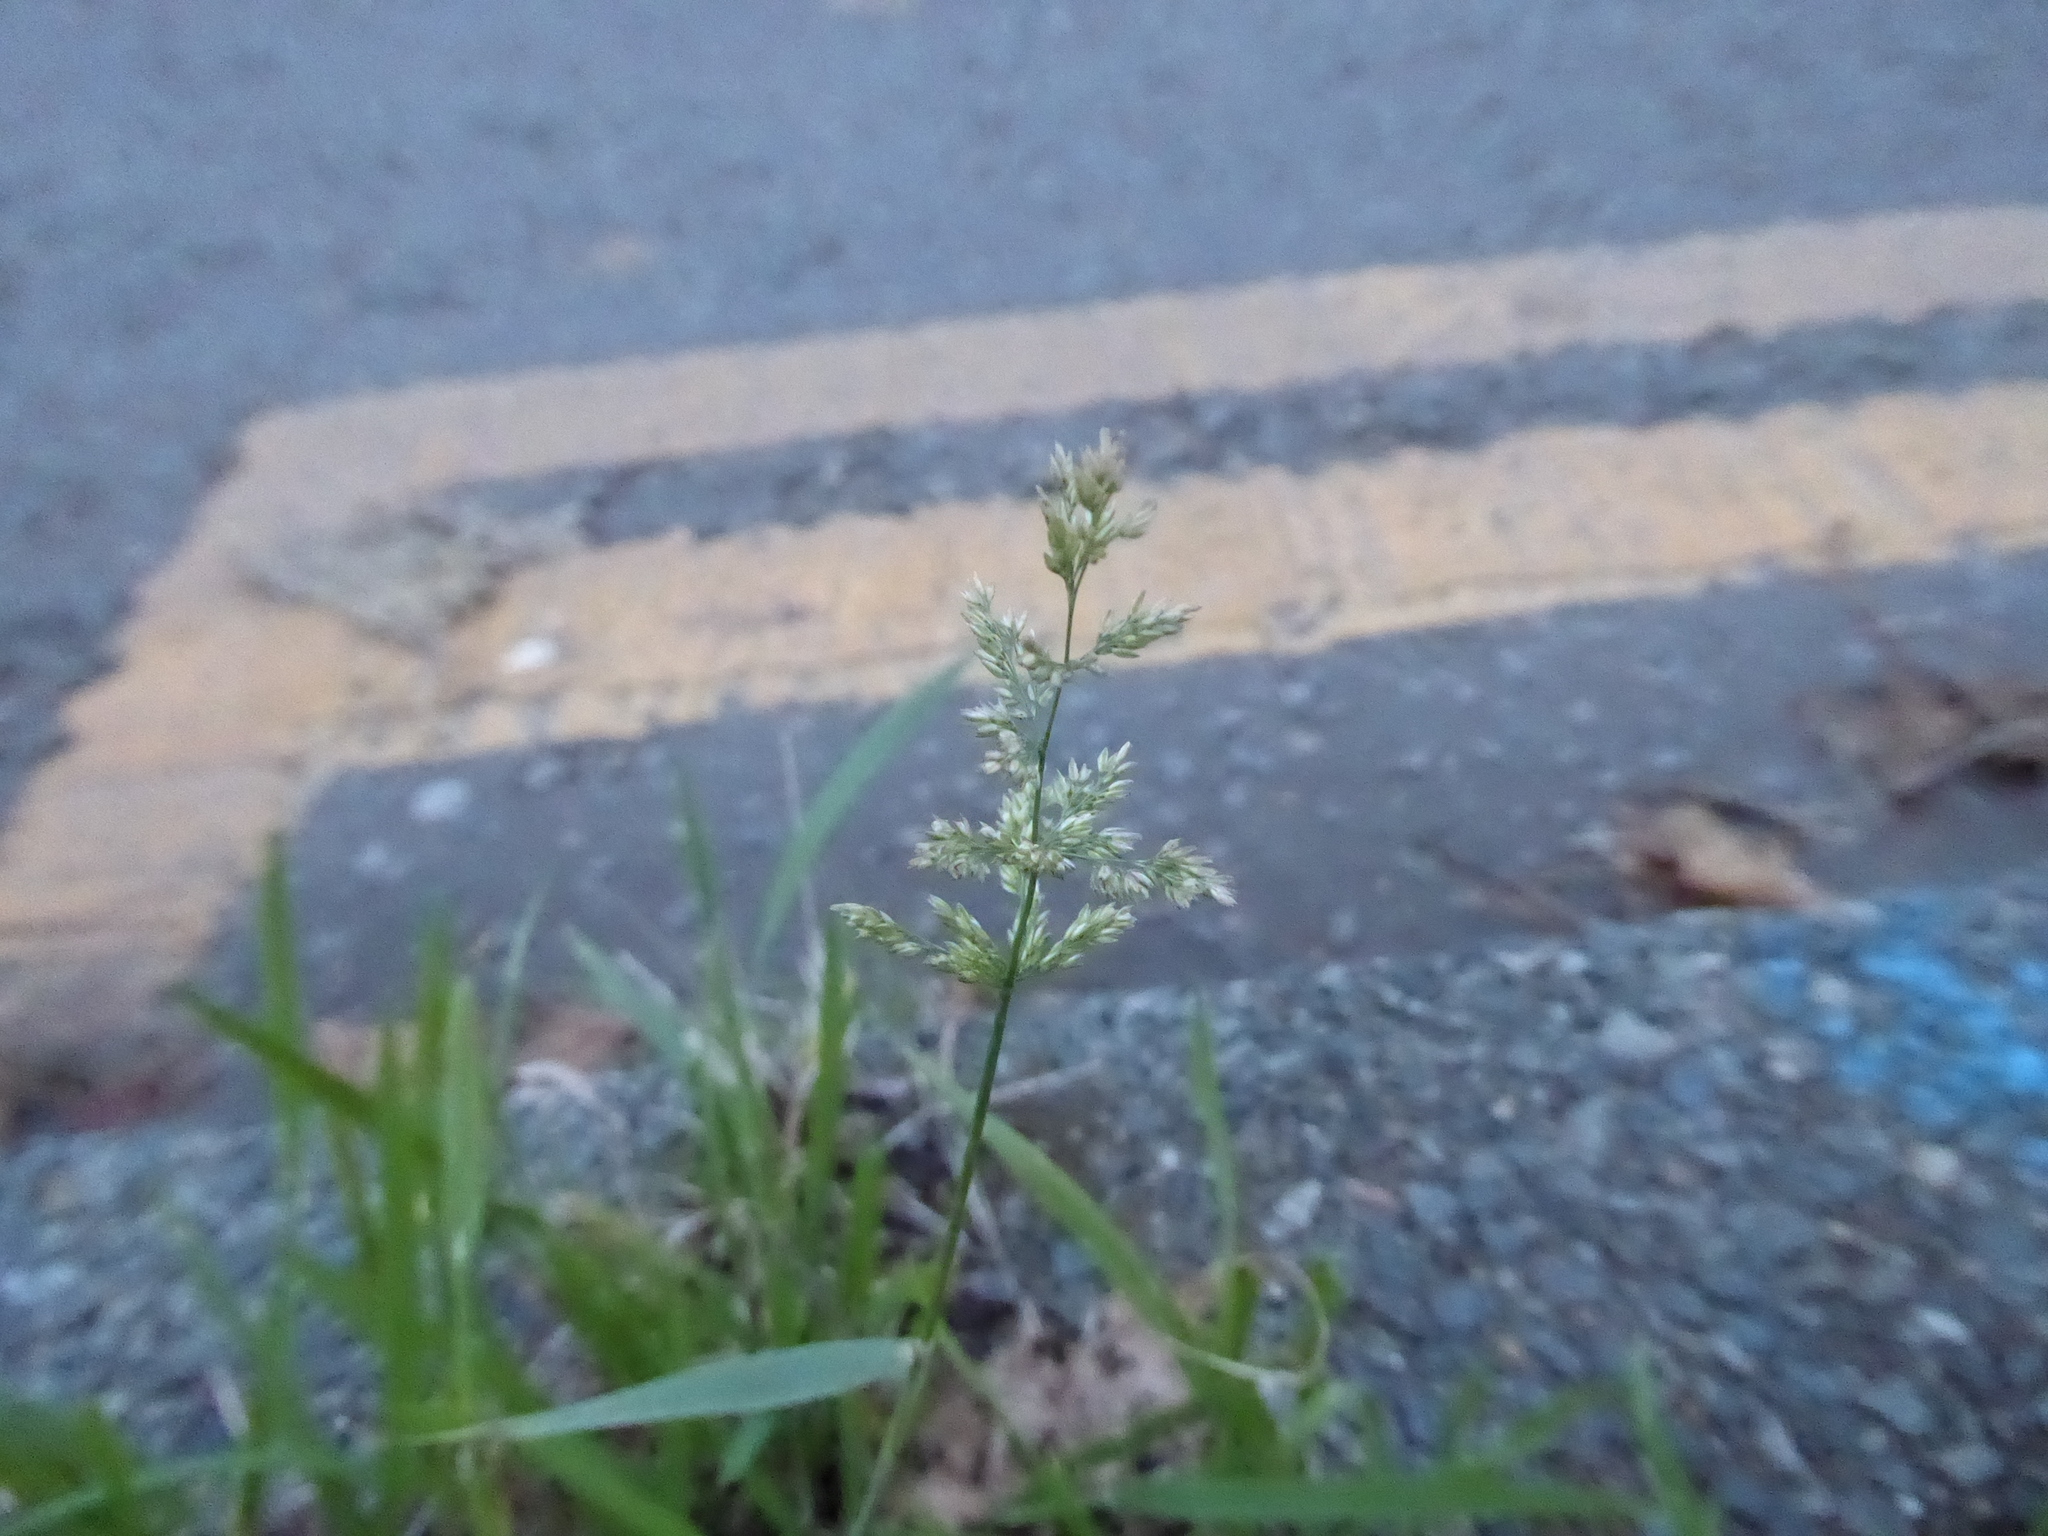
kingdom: Plantae
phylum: Tracheophyta
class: Liliopsida
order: Poales
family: Poaceae
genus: Polypogon
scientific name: Polypogon viridis
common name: Water bent
